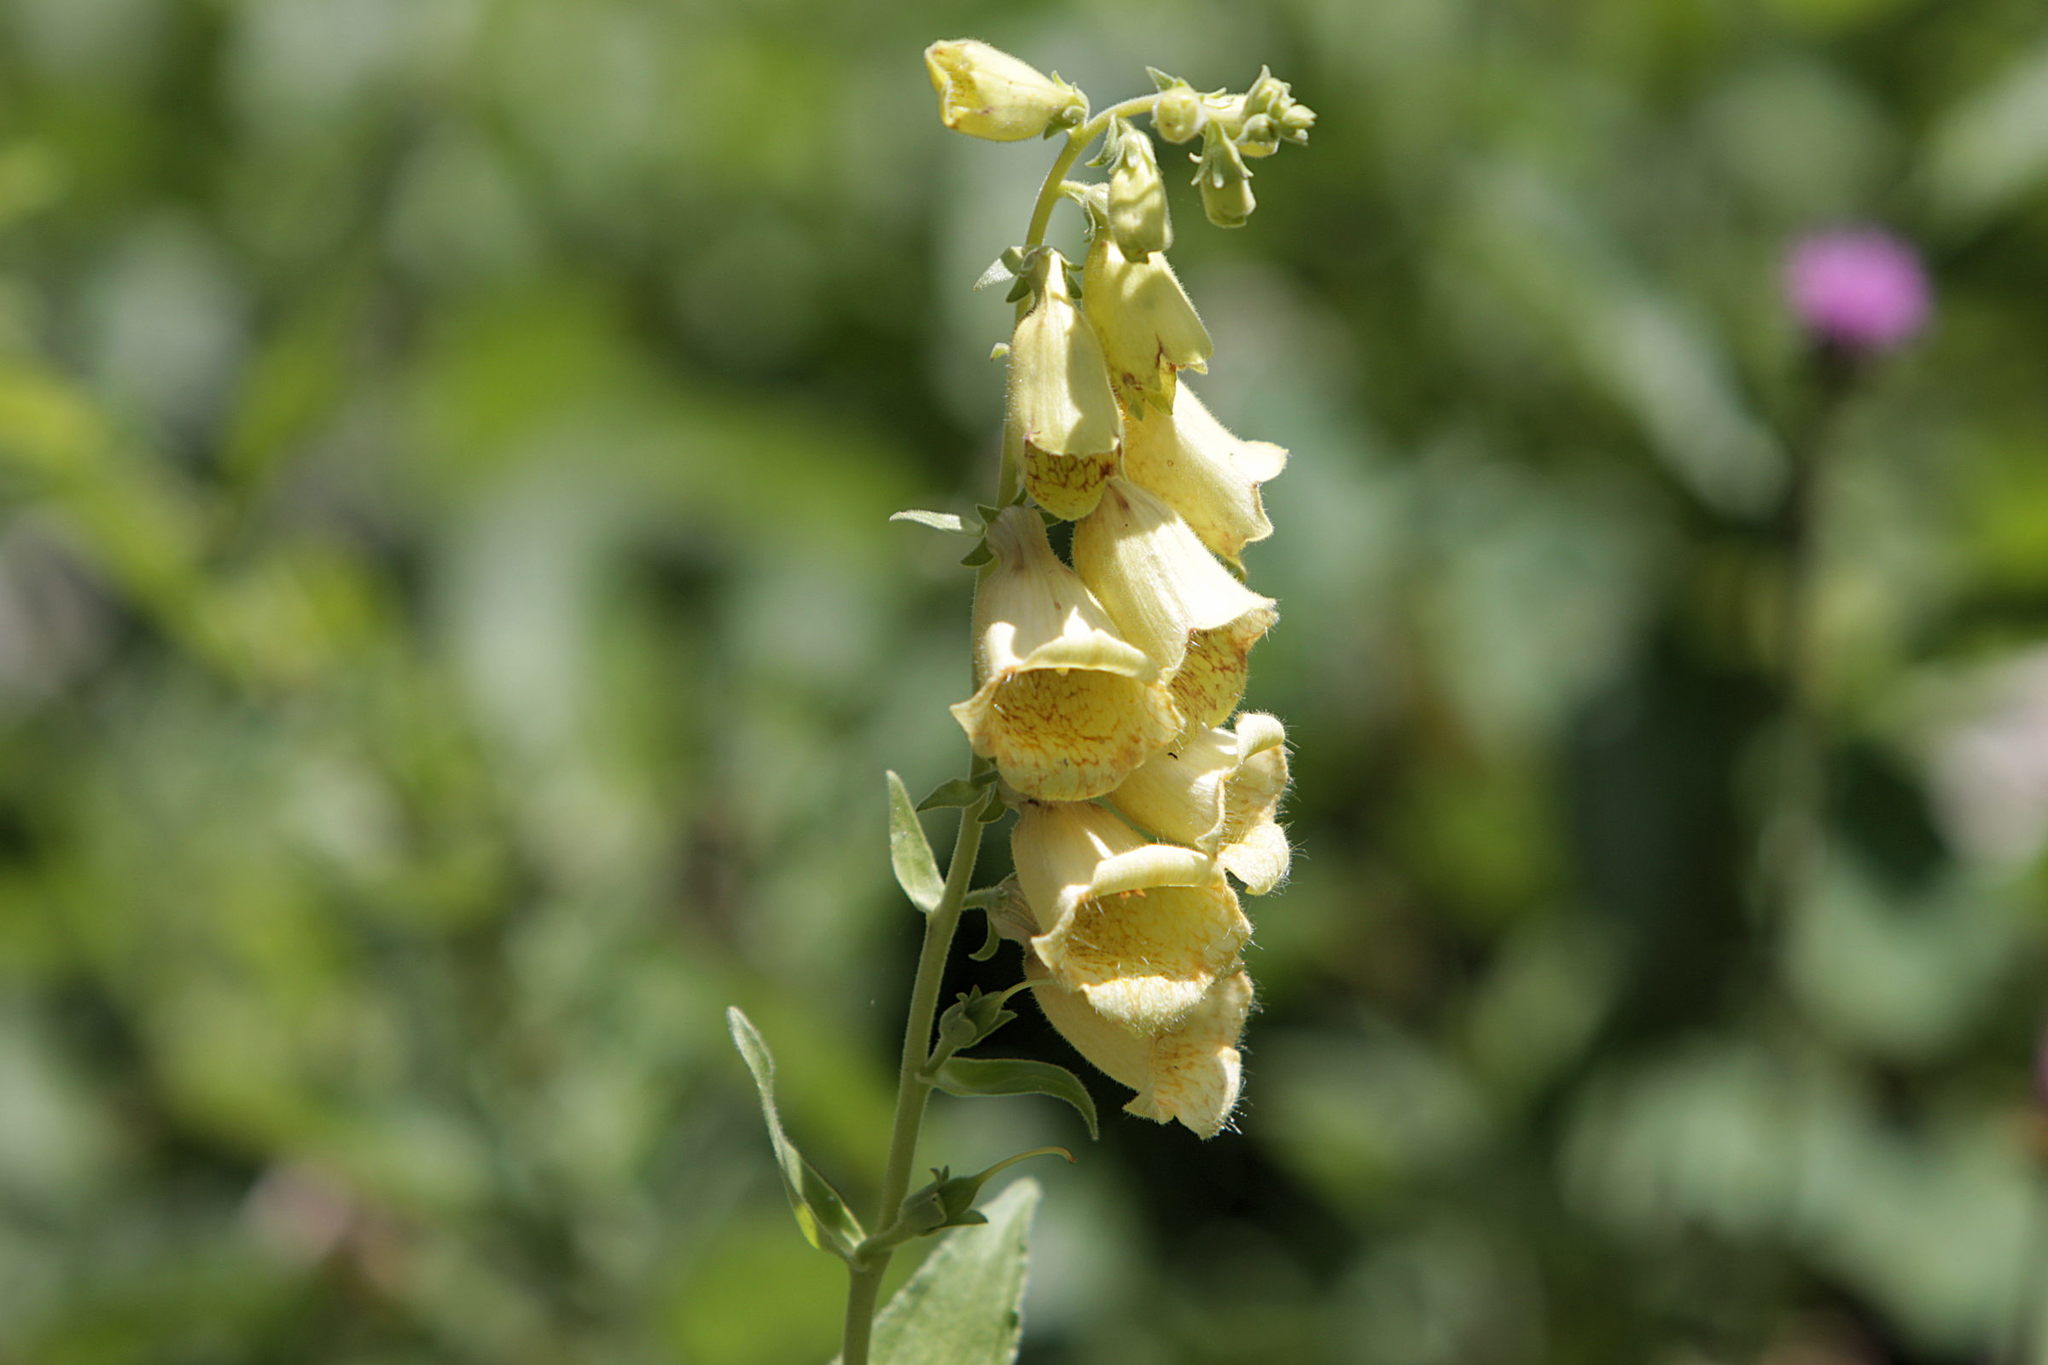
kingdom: Plantae
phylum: Tracheophyta
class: Magnoliopsida
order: Lamiales
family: Plantaginaceae
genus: Digitalis
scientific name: Digitalis grandiflora
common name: Yellow foxglove
